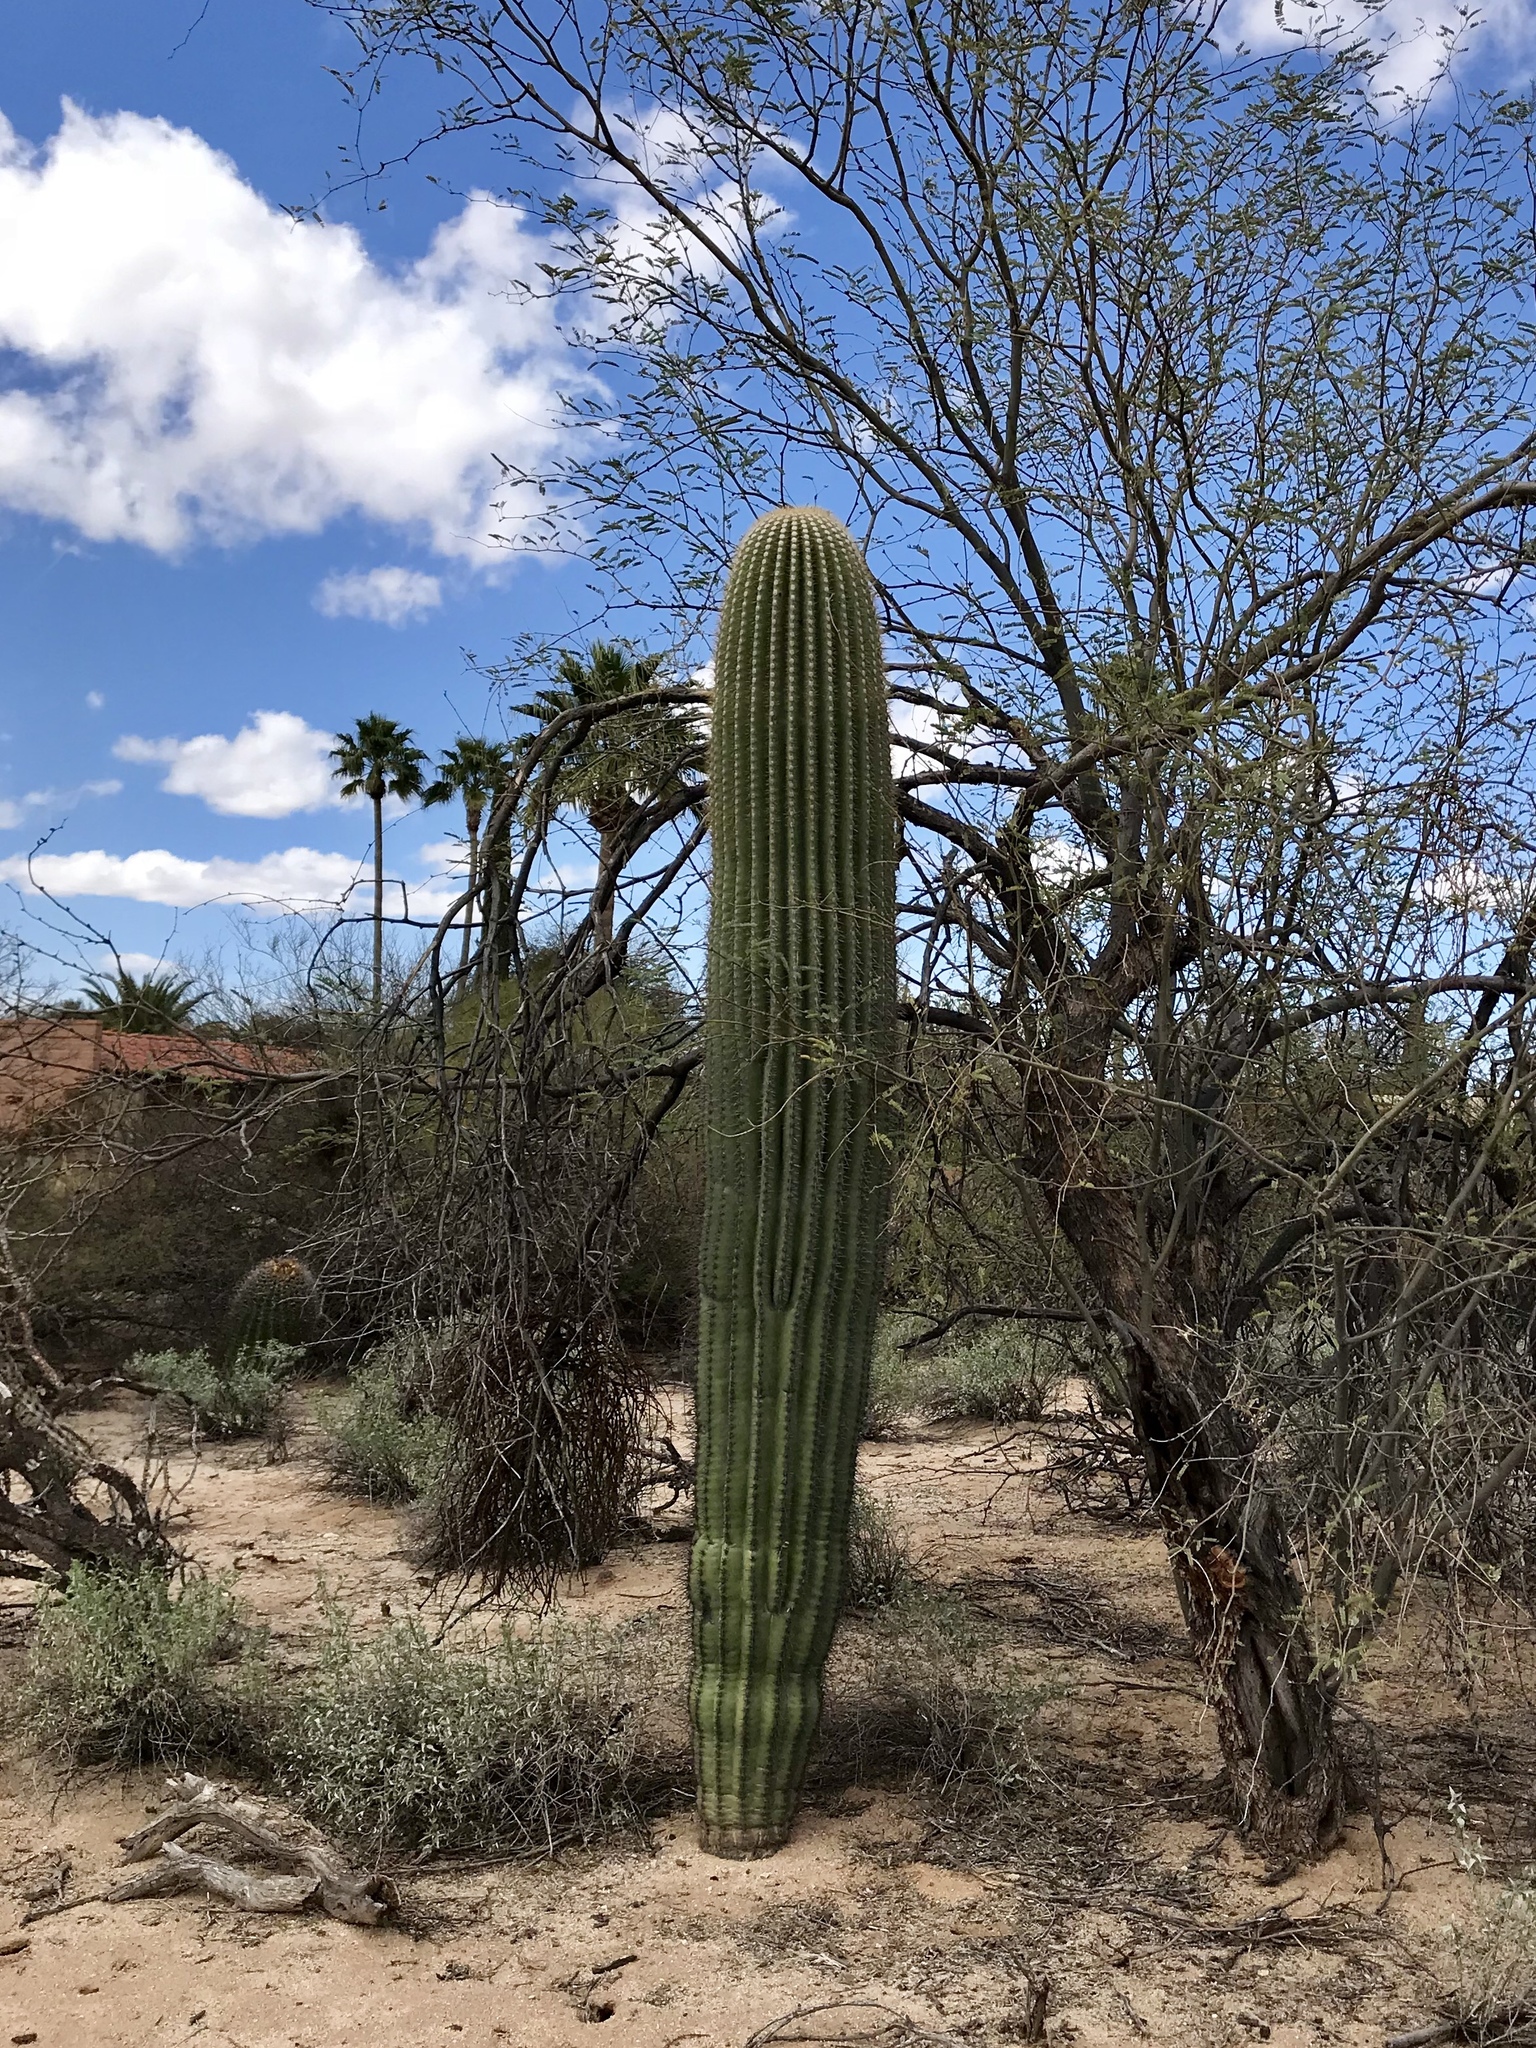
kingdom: Plantae
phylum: Tracheophyta
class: Magnoliopsida
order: Caryophyllales
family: Cactaceae
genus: Carnegiea
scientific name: Carnegiea gigantea
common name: Saguaro
